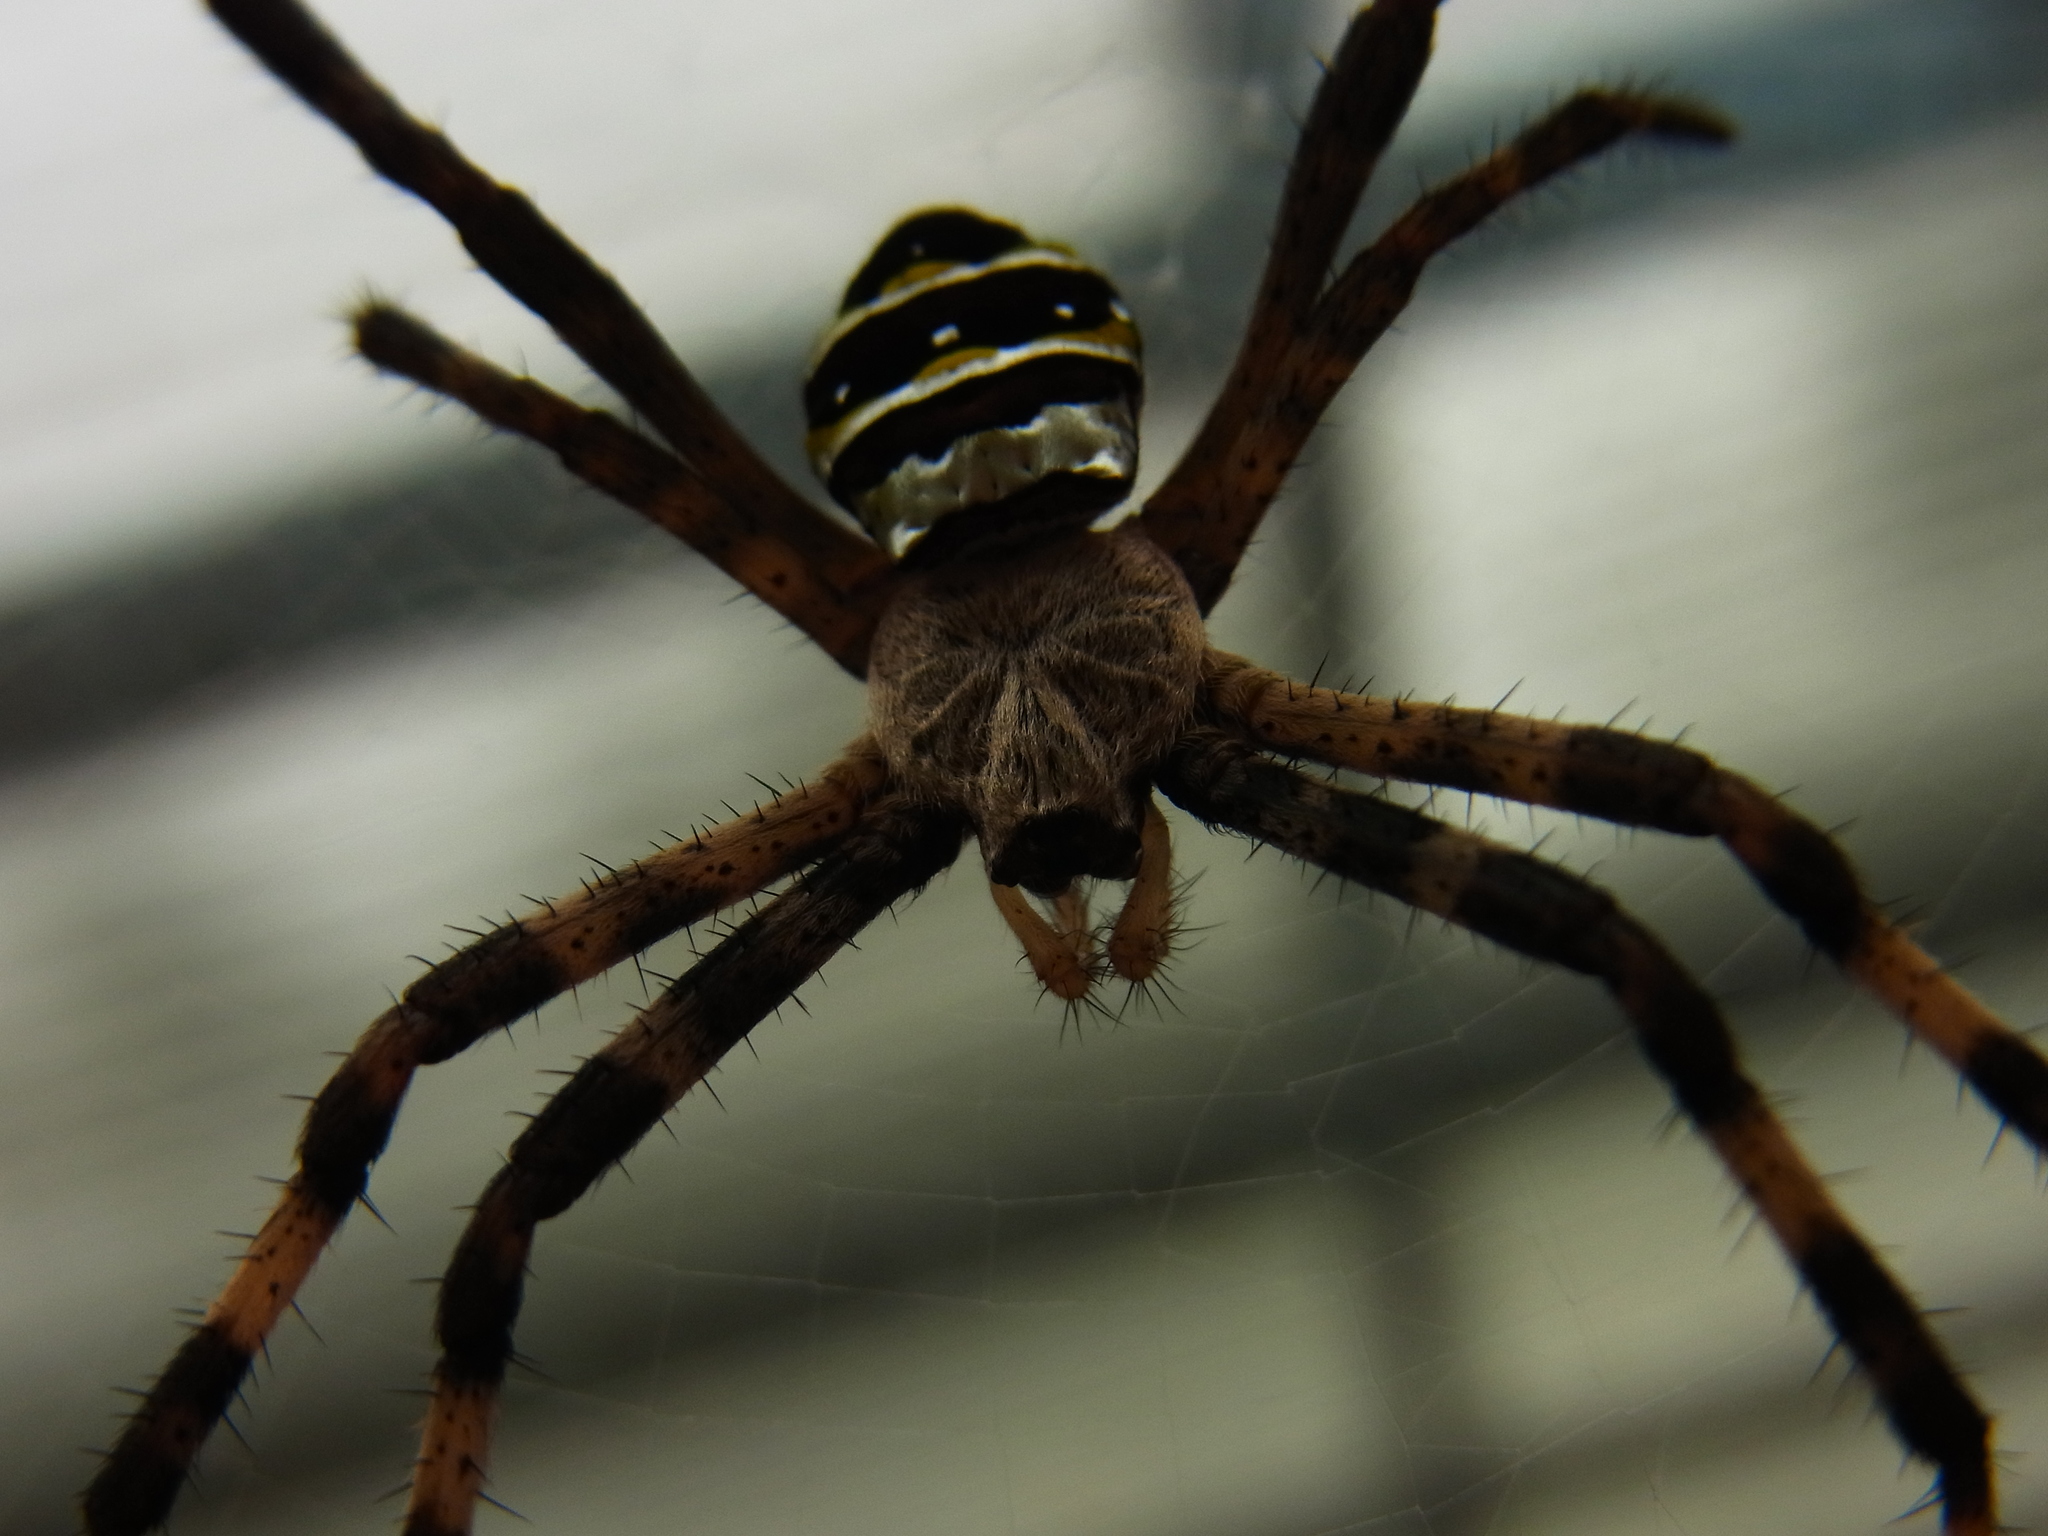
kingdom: Animalia
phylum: Arthropoda
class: Arachnida
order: Araneae
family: Araneidae
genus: Argiope
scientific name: Argiope amoena
